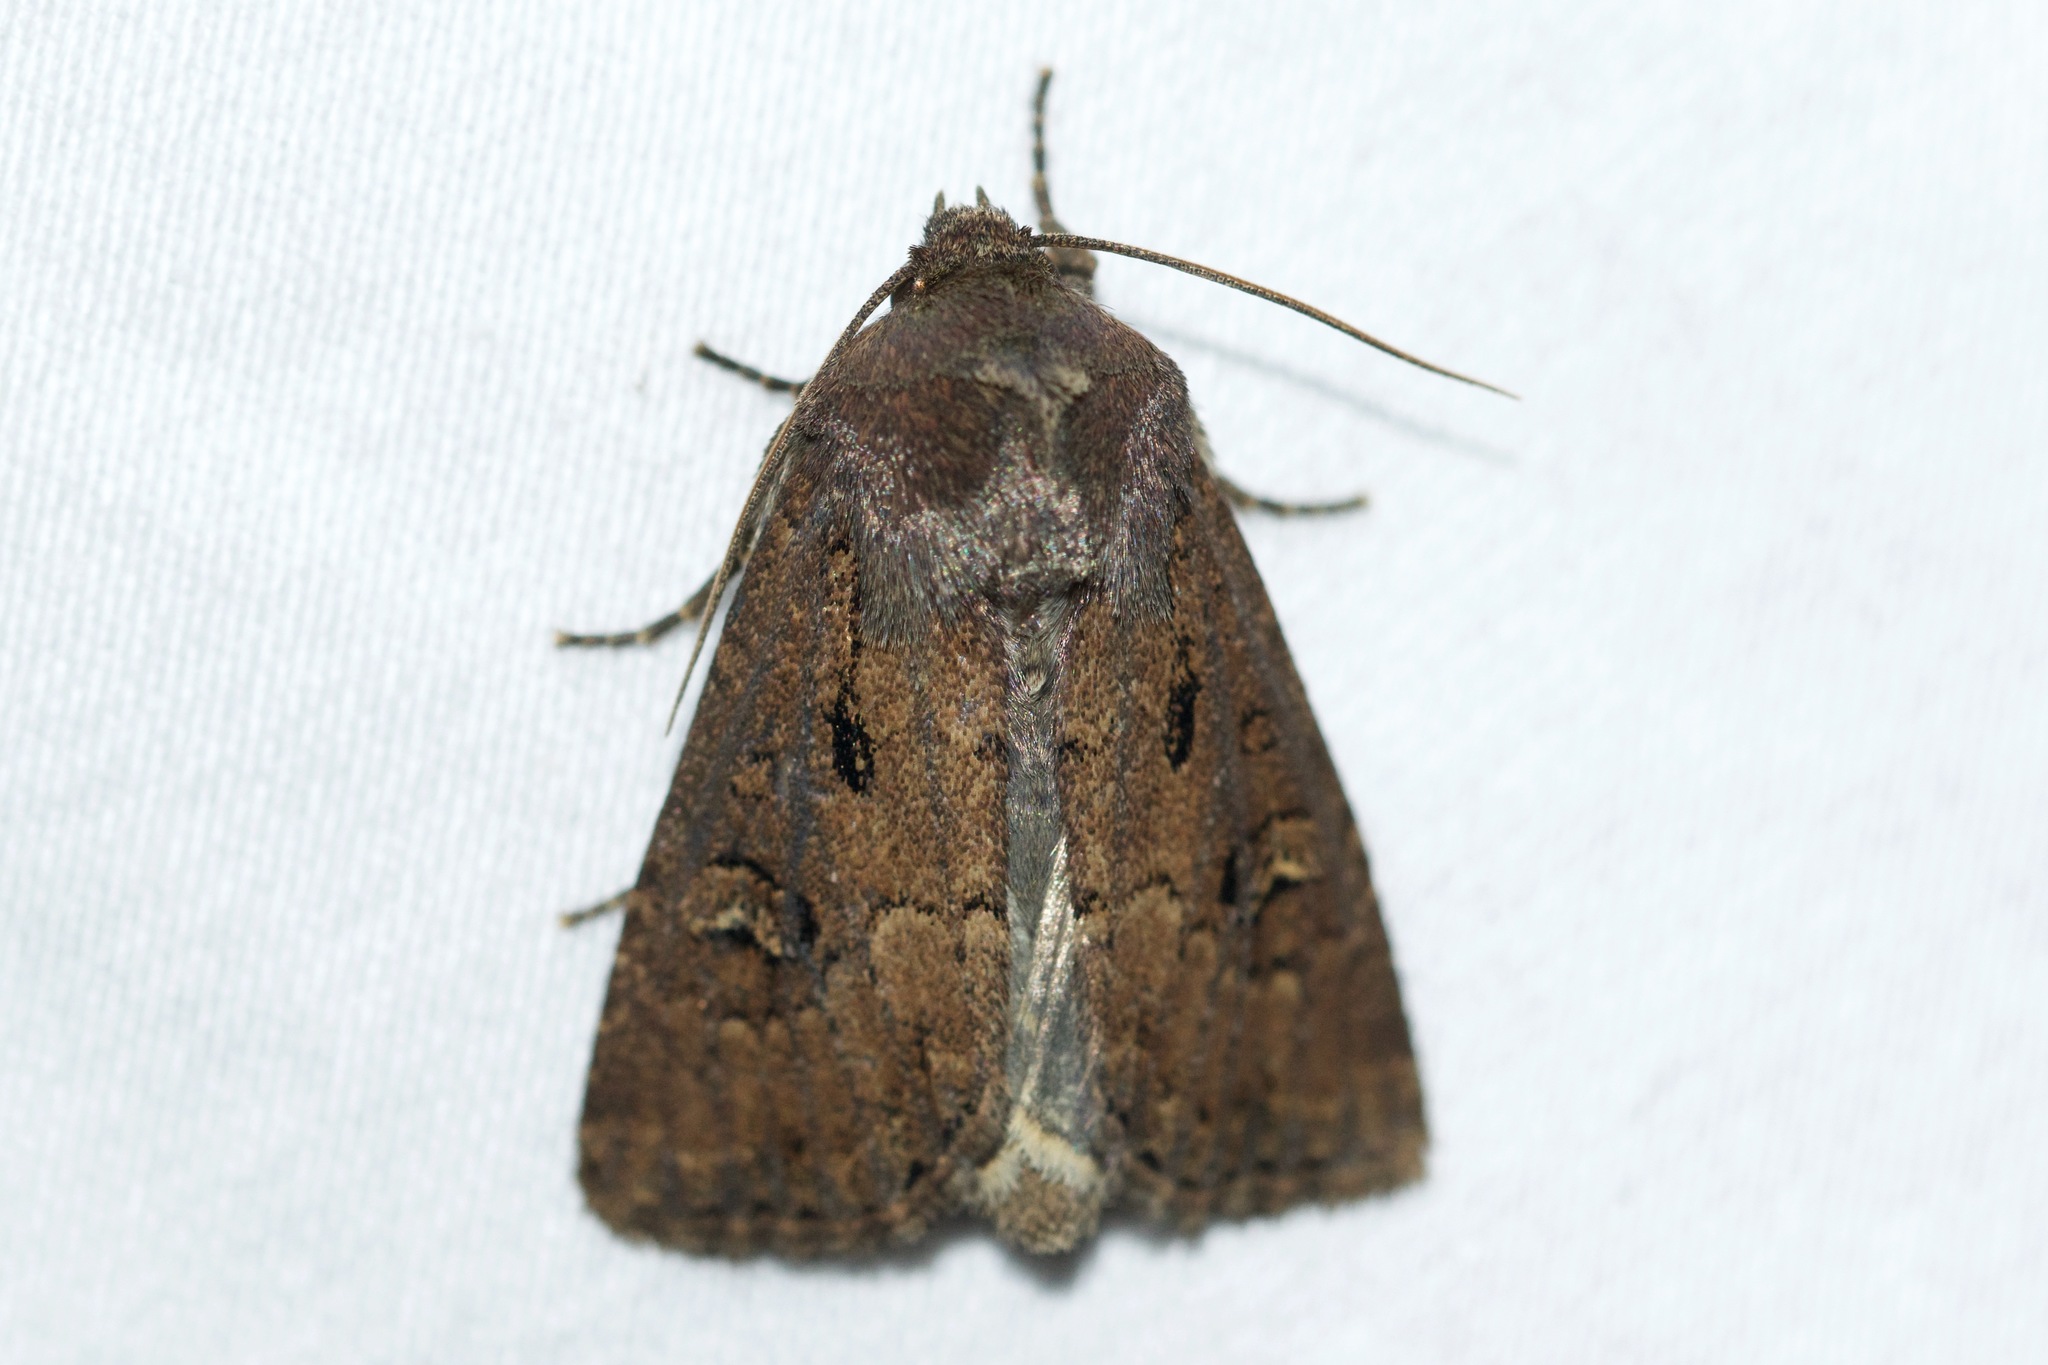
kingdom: Animalia
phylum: Arthropoda
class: Insecta
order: Lepidoptera
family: Noctuidae
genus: Resapamea
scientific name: Resapamea passer
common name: Dock rustic moth
